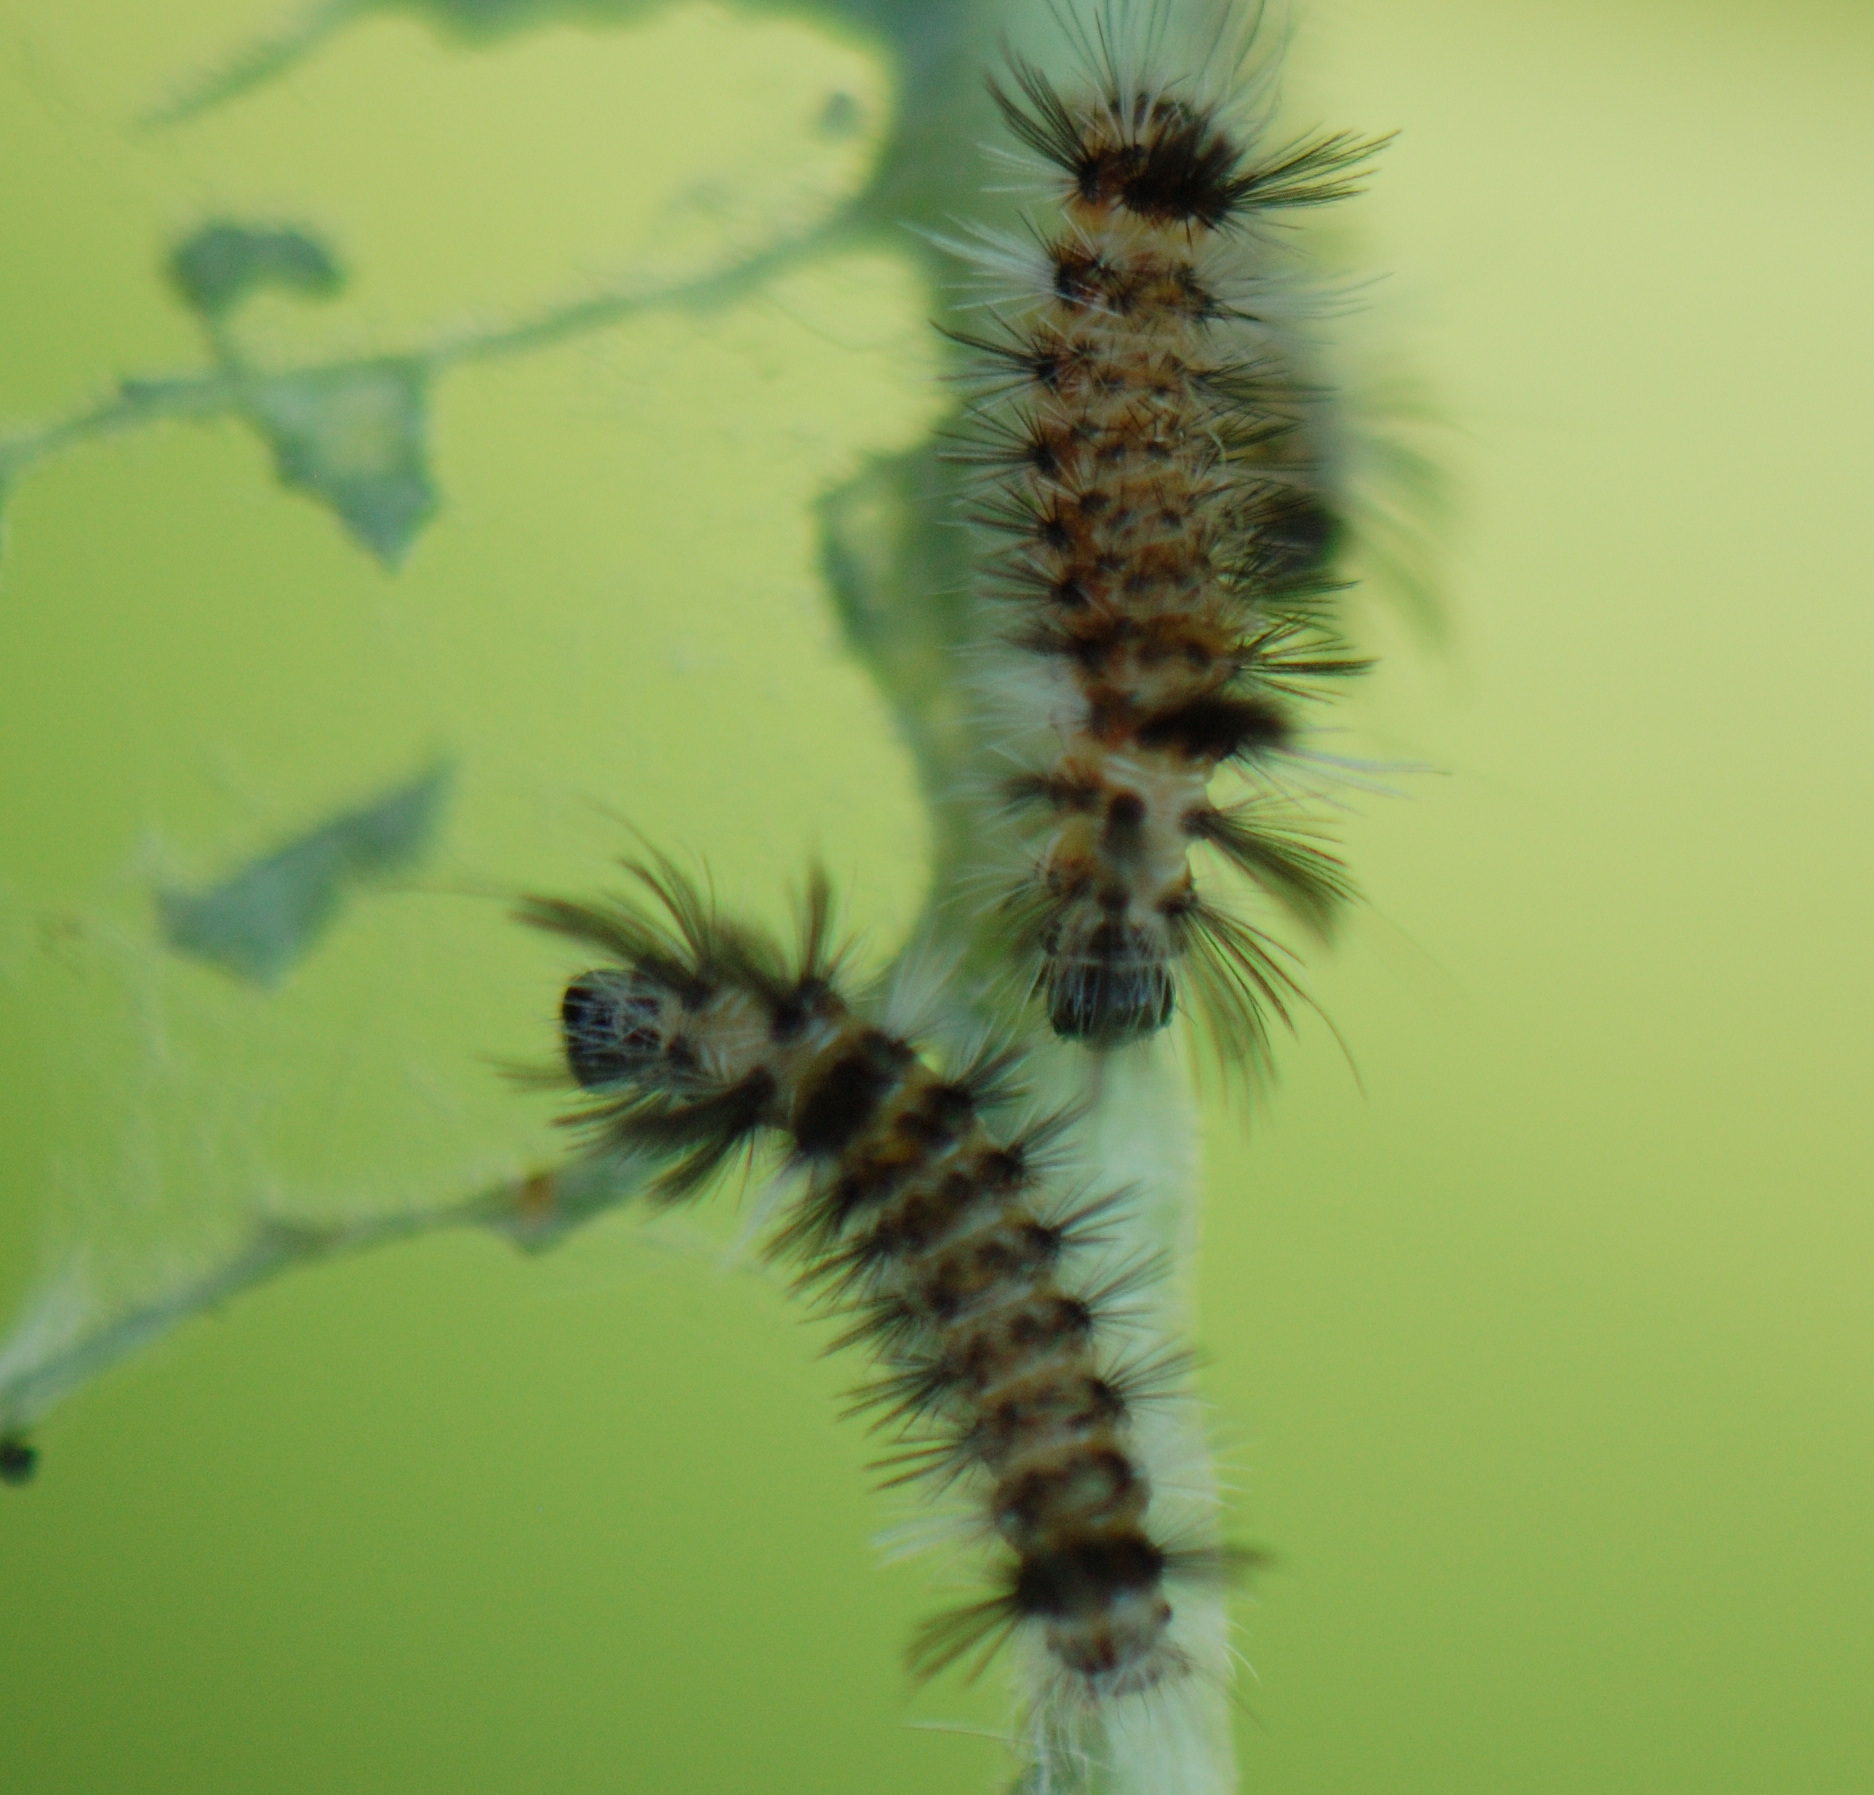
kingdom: Animalia
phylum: Arthropoda
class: Insecta
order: Lepidoptera
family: Erebidae
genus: Euchaetes
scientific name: Euchaetes egle
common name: Milkweed tussock moth
